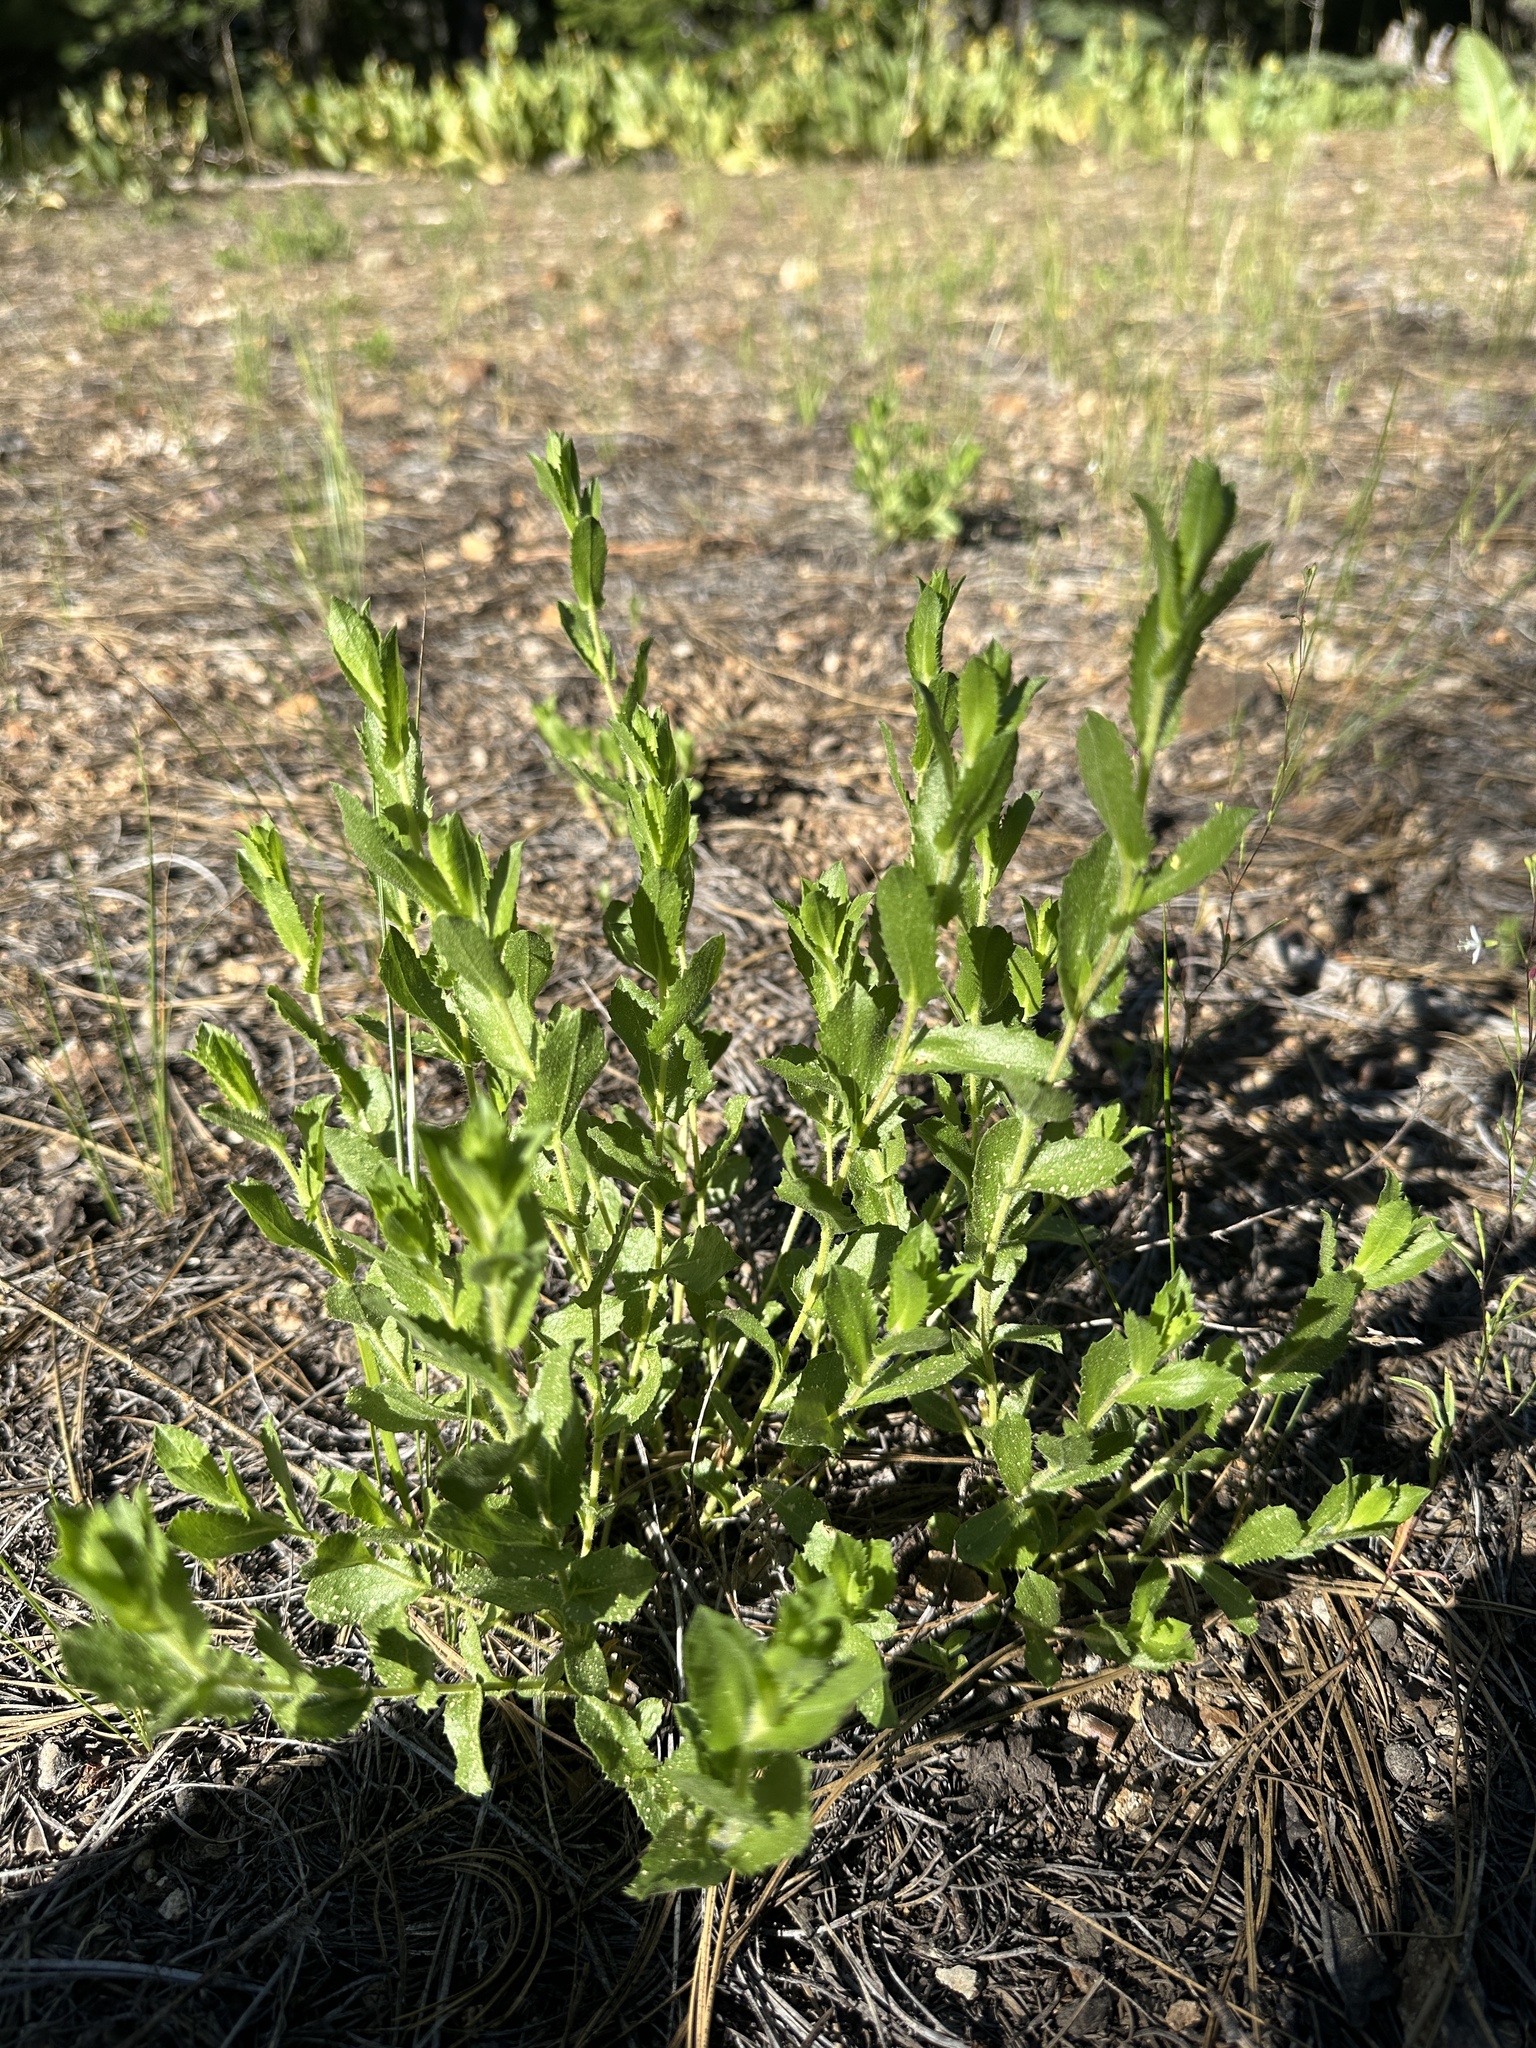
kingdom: Plantae
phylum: Tracheophyta
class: Magnoliopsida
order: Asterales
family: Asteraceae
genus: Adeia
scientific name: Adeia whitneyi
